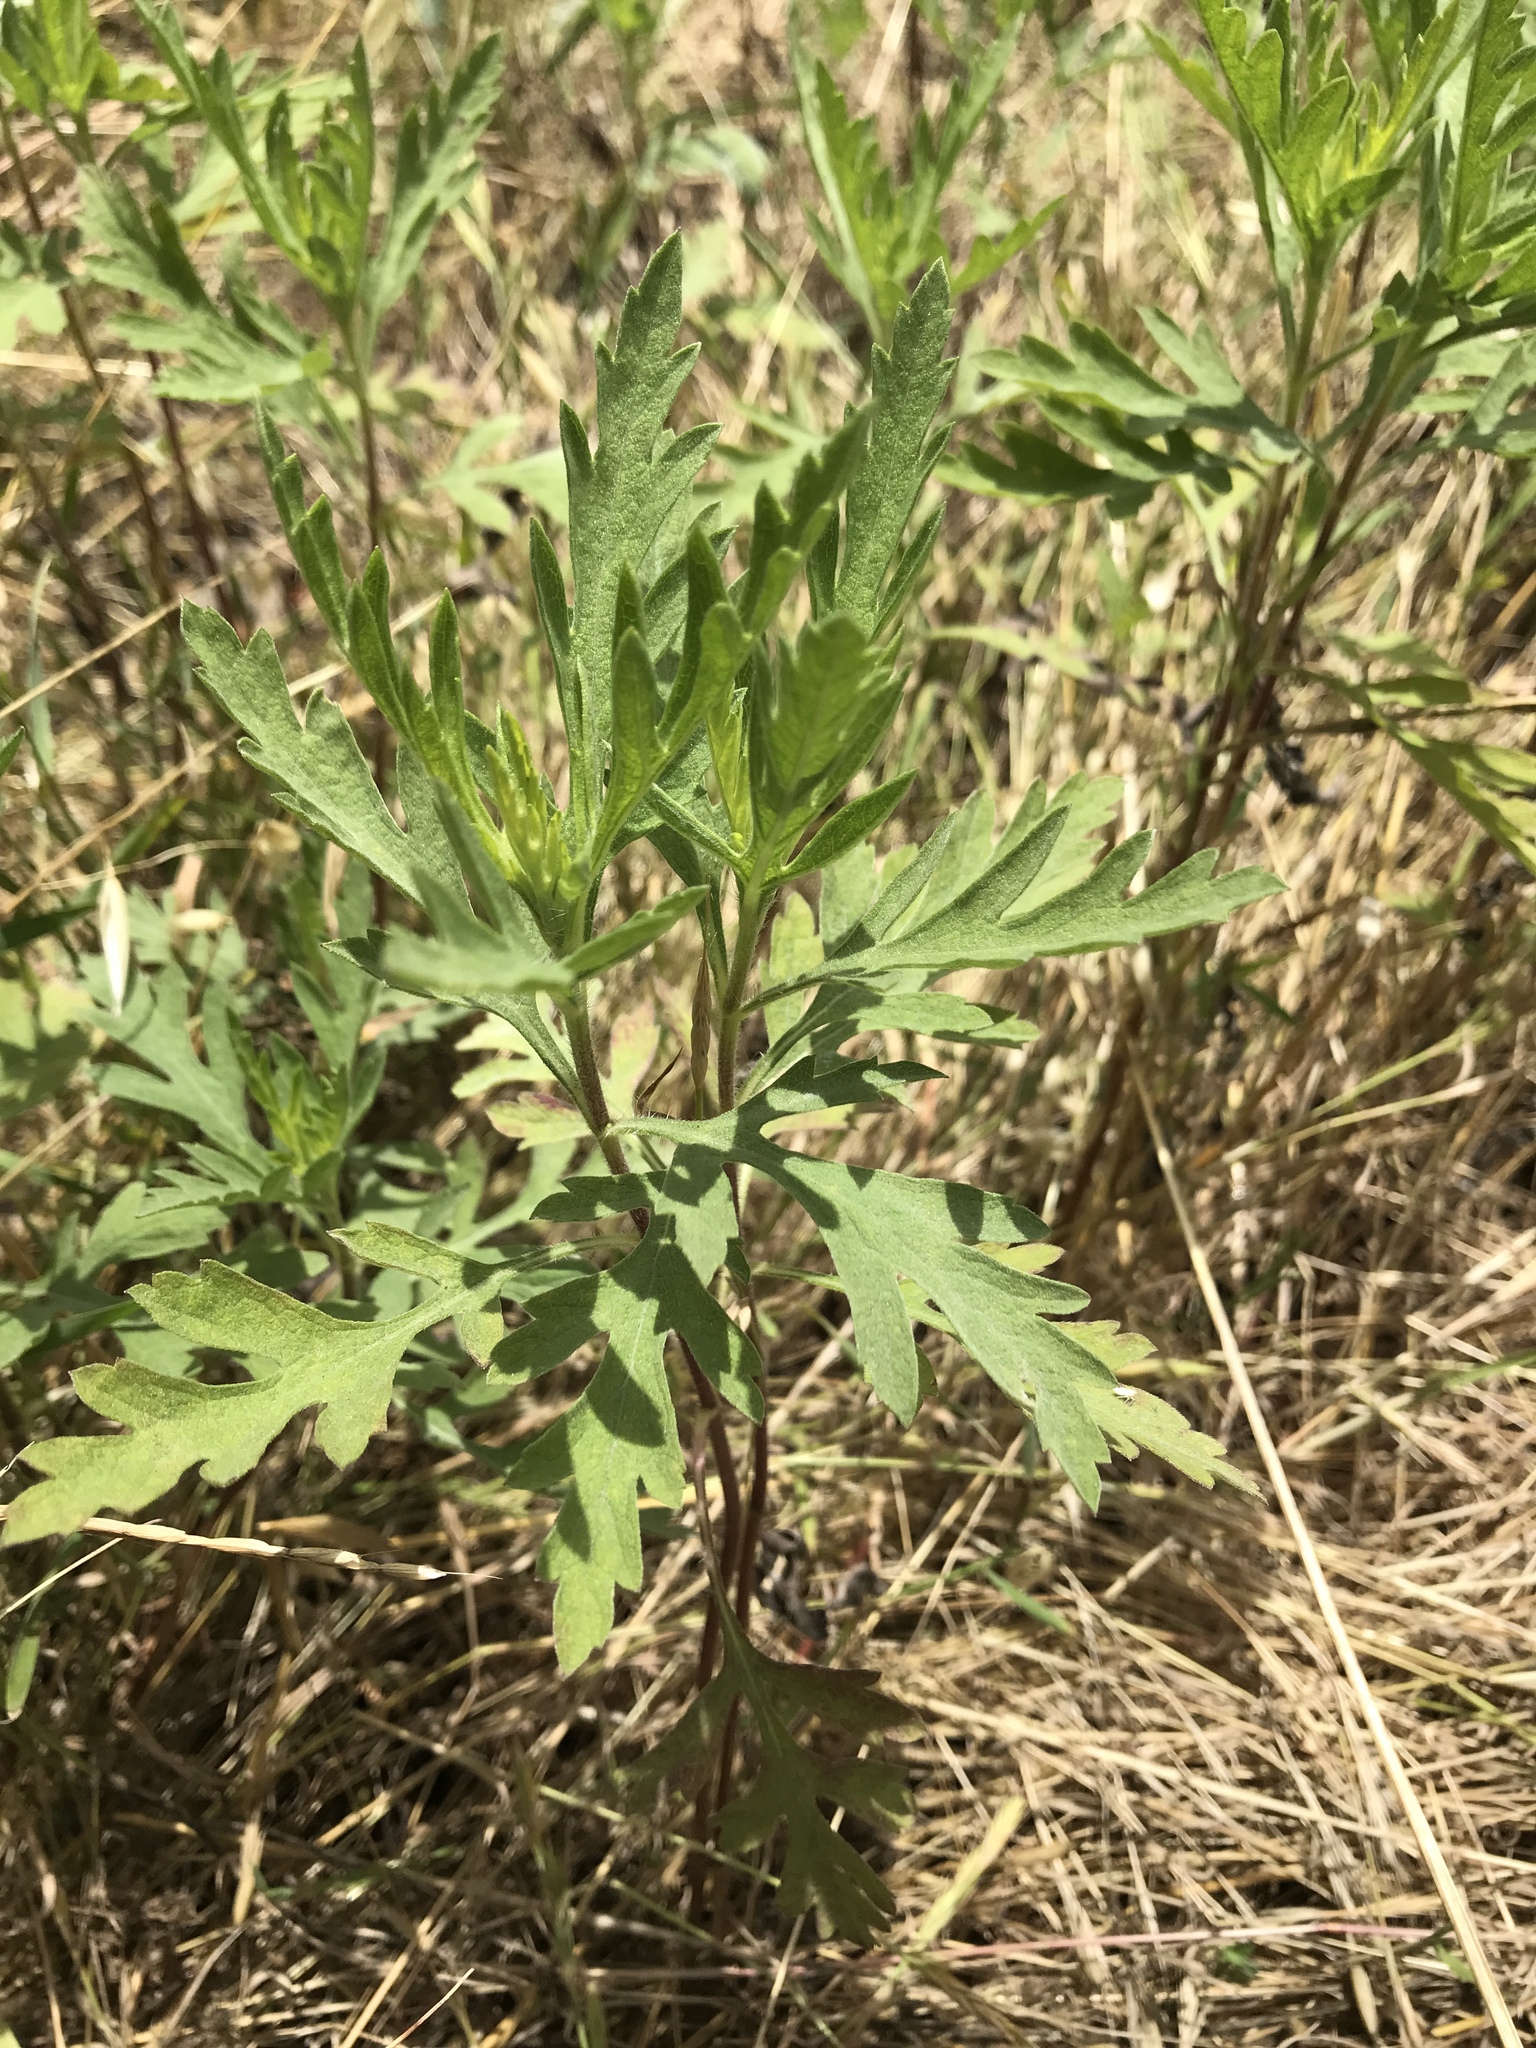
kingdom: Plantae
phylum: Tracheophyta
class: Magnoliopsida
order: Asterales
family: Asteraceae
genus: Ambrosia
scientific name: Ambrosia psilostachya
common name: Perennial ragweed
